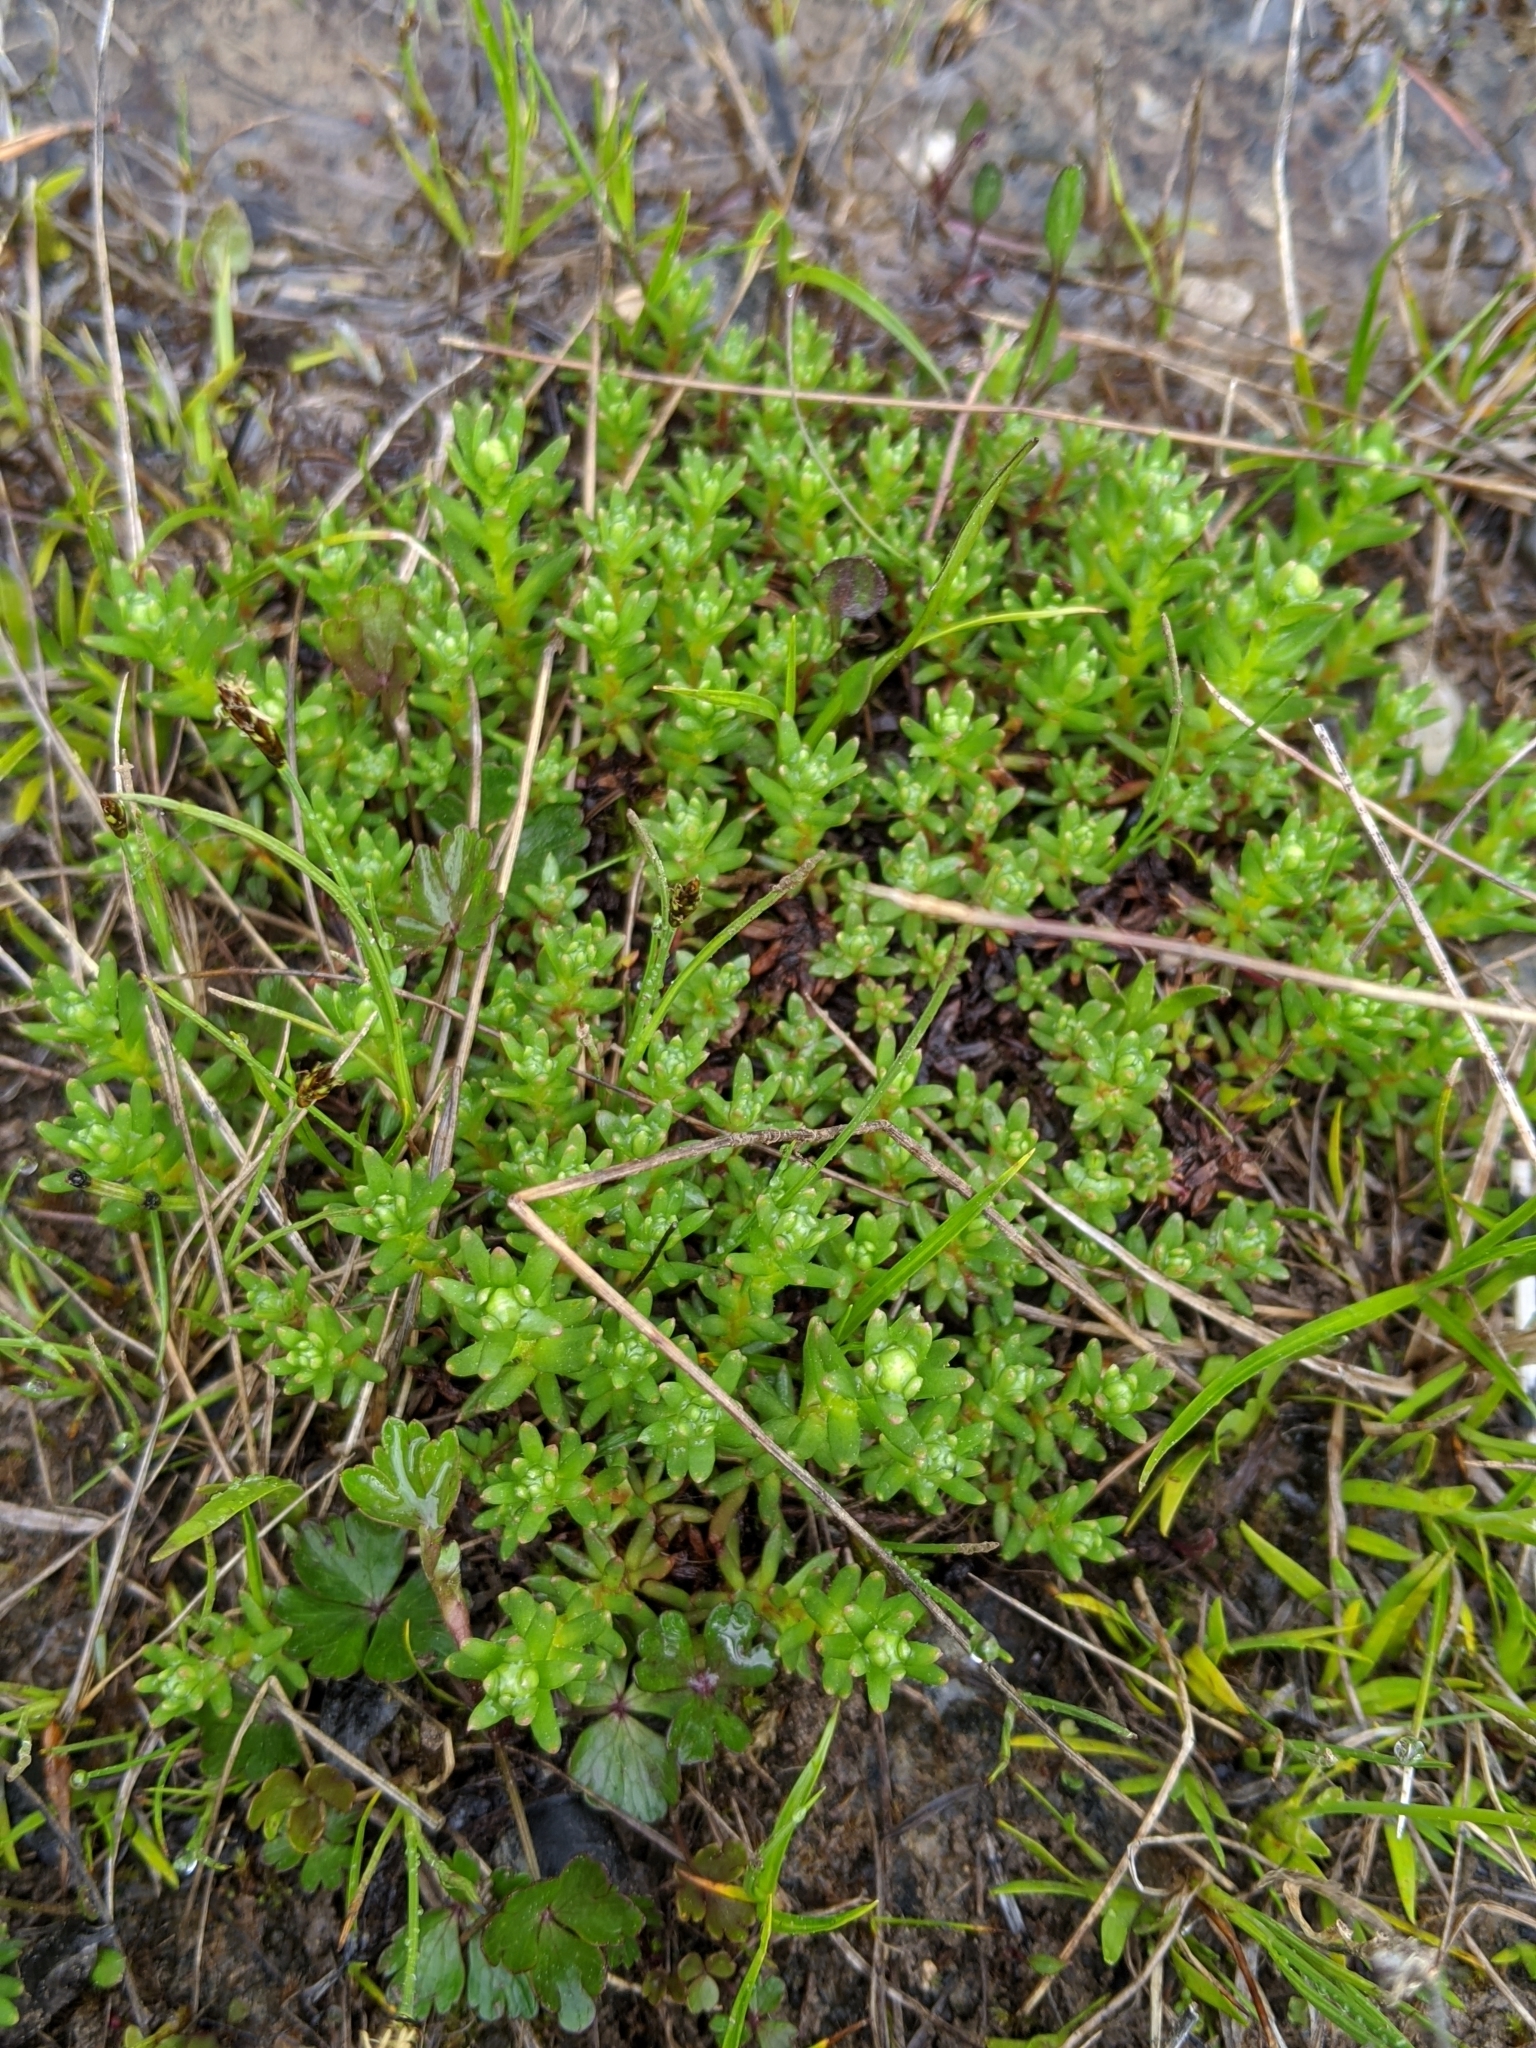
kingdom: Plantae
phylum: Tracheophyta
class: Magnoliopsida
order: Saxifragales
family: Saxifragaceae
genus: Saxifraga
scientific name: Saxifraga aizoides
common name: Yellow mountain saxifrage
